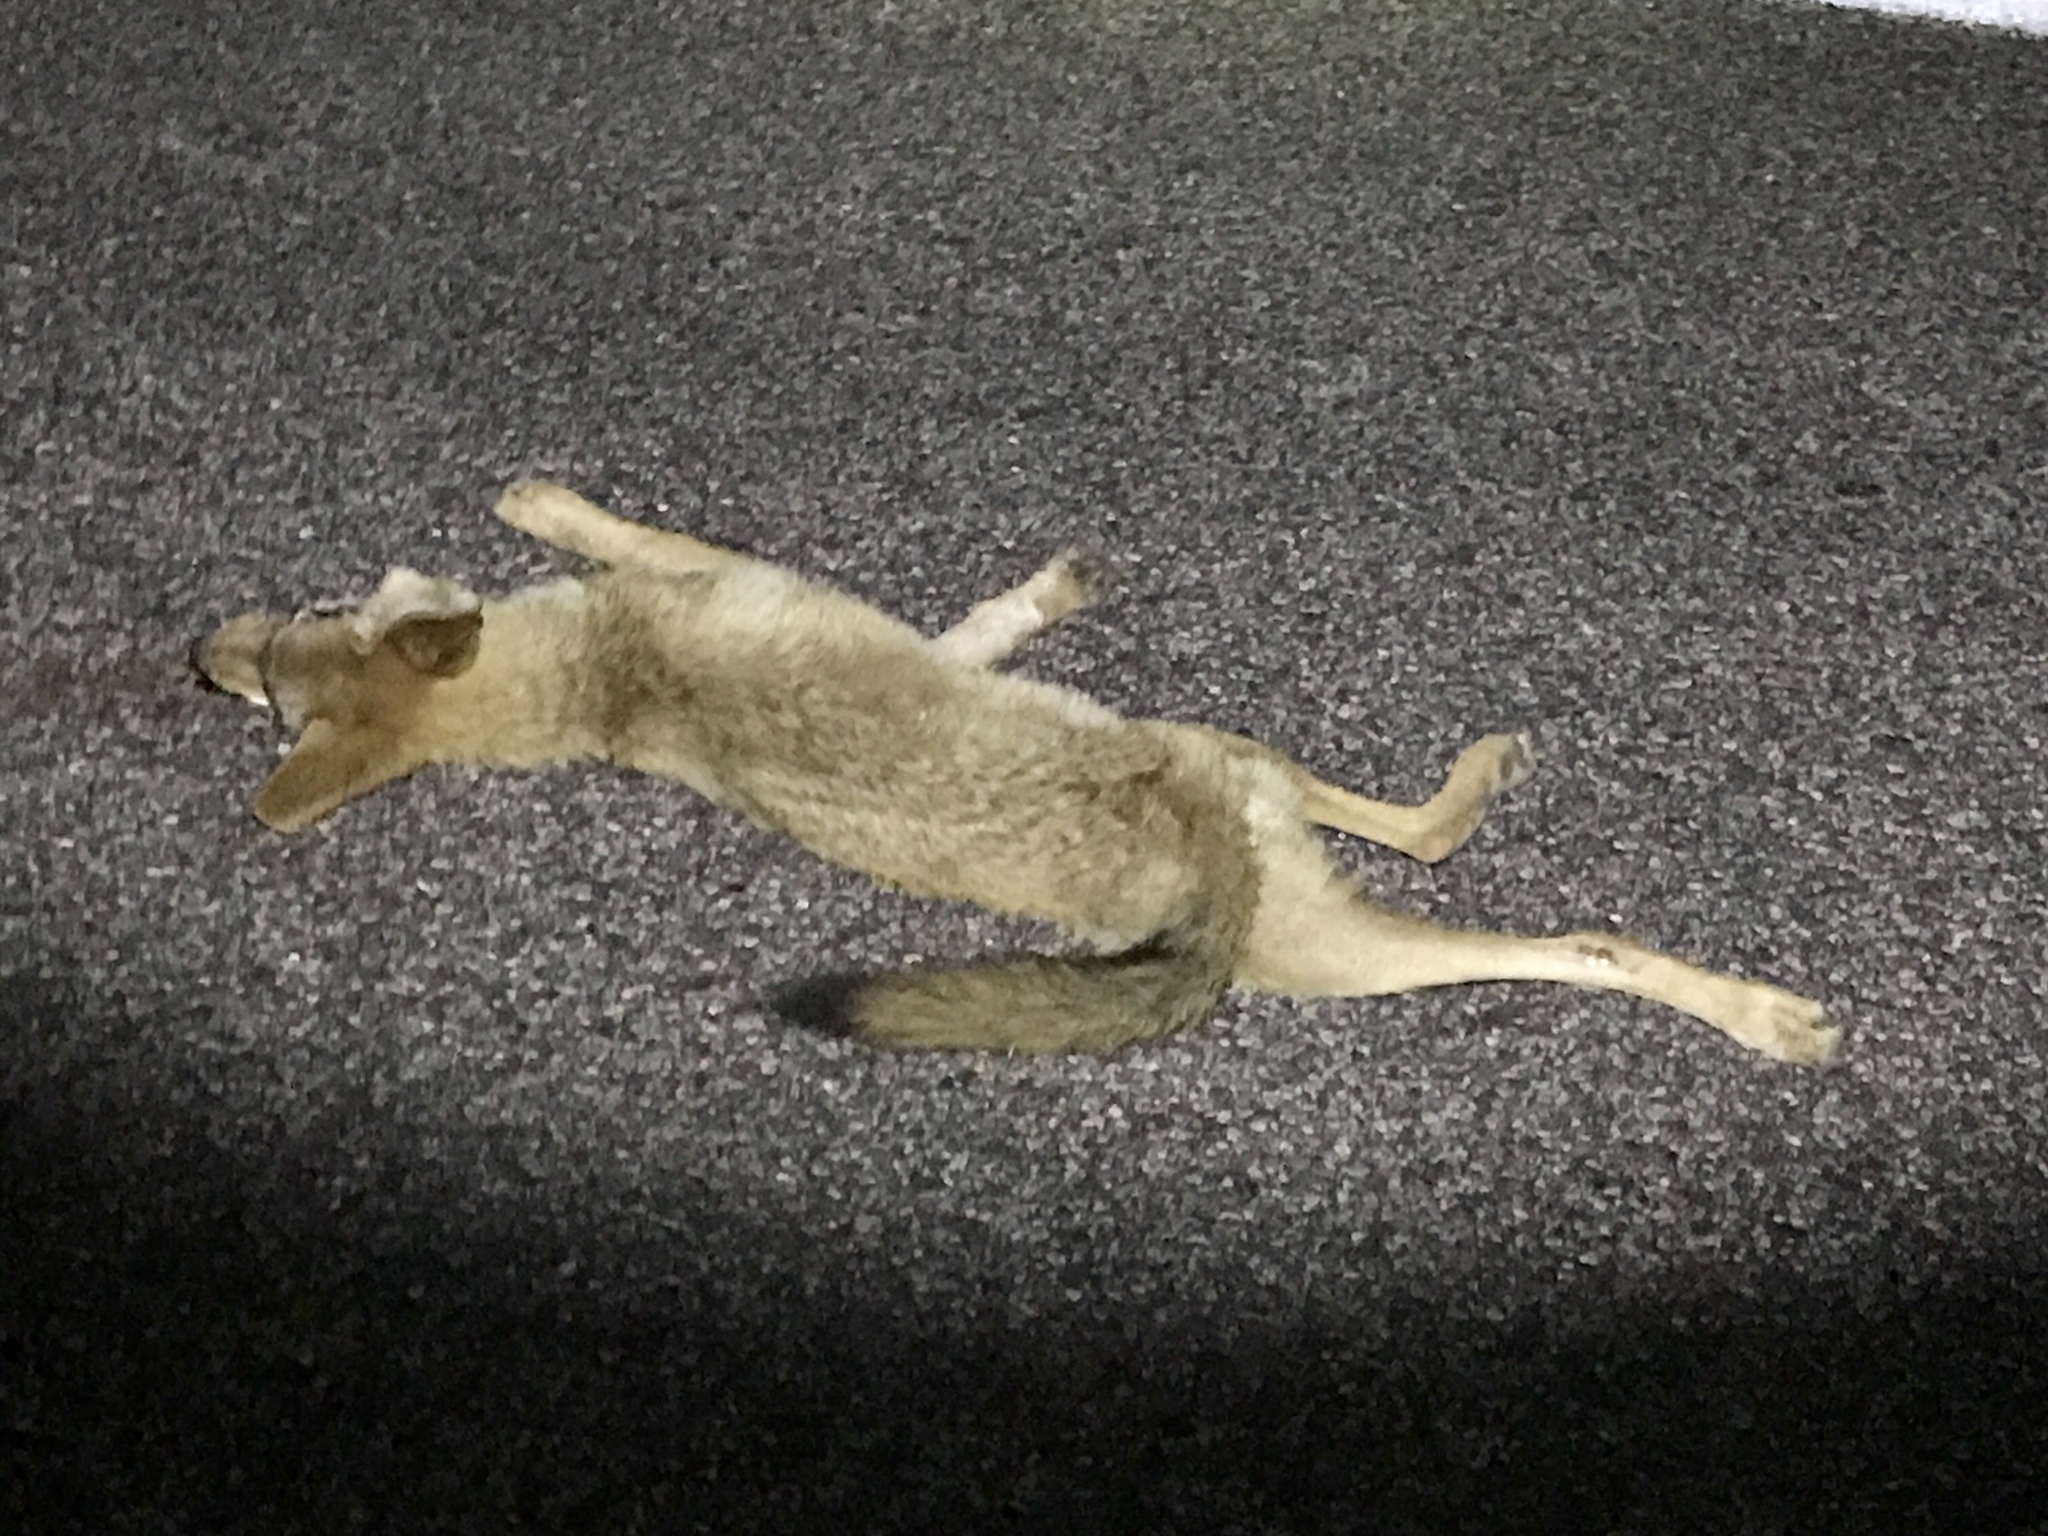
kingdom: Animalia
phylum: Chordata
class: Mammalia
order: Carnivora
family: Canidae
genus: Canis
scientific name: Canis latrans
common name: Coyote
